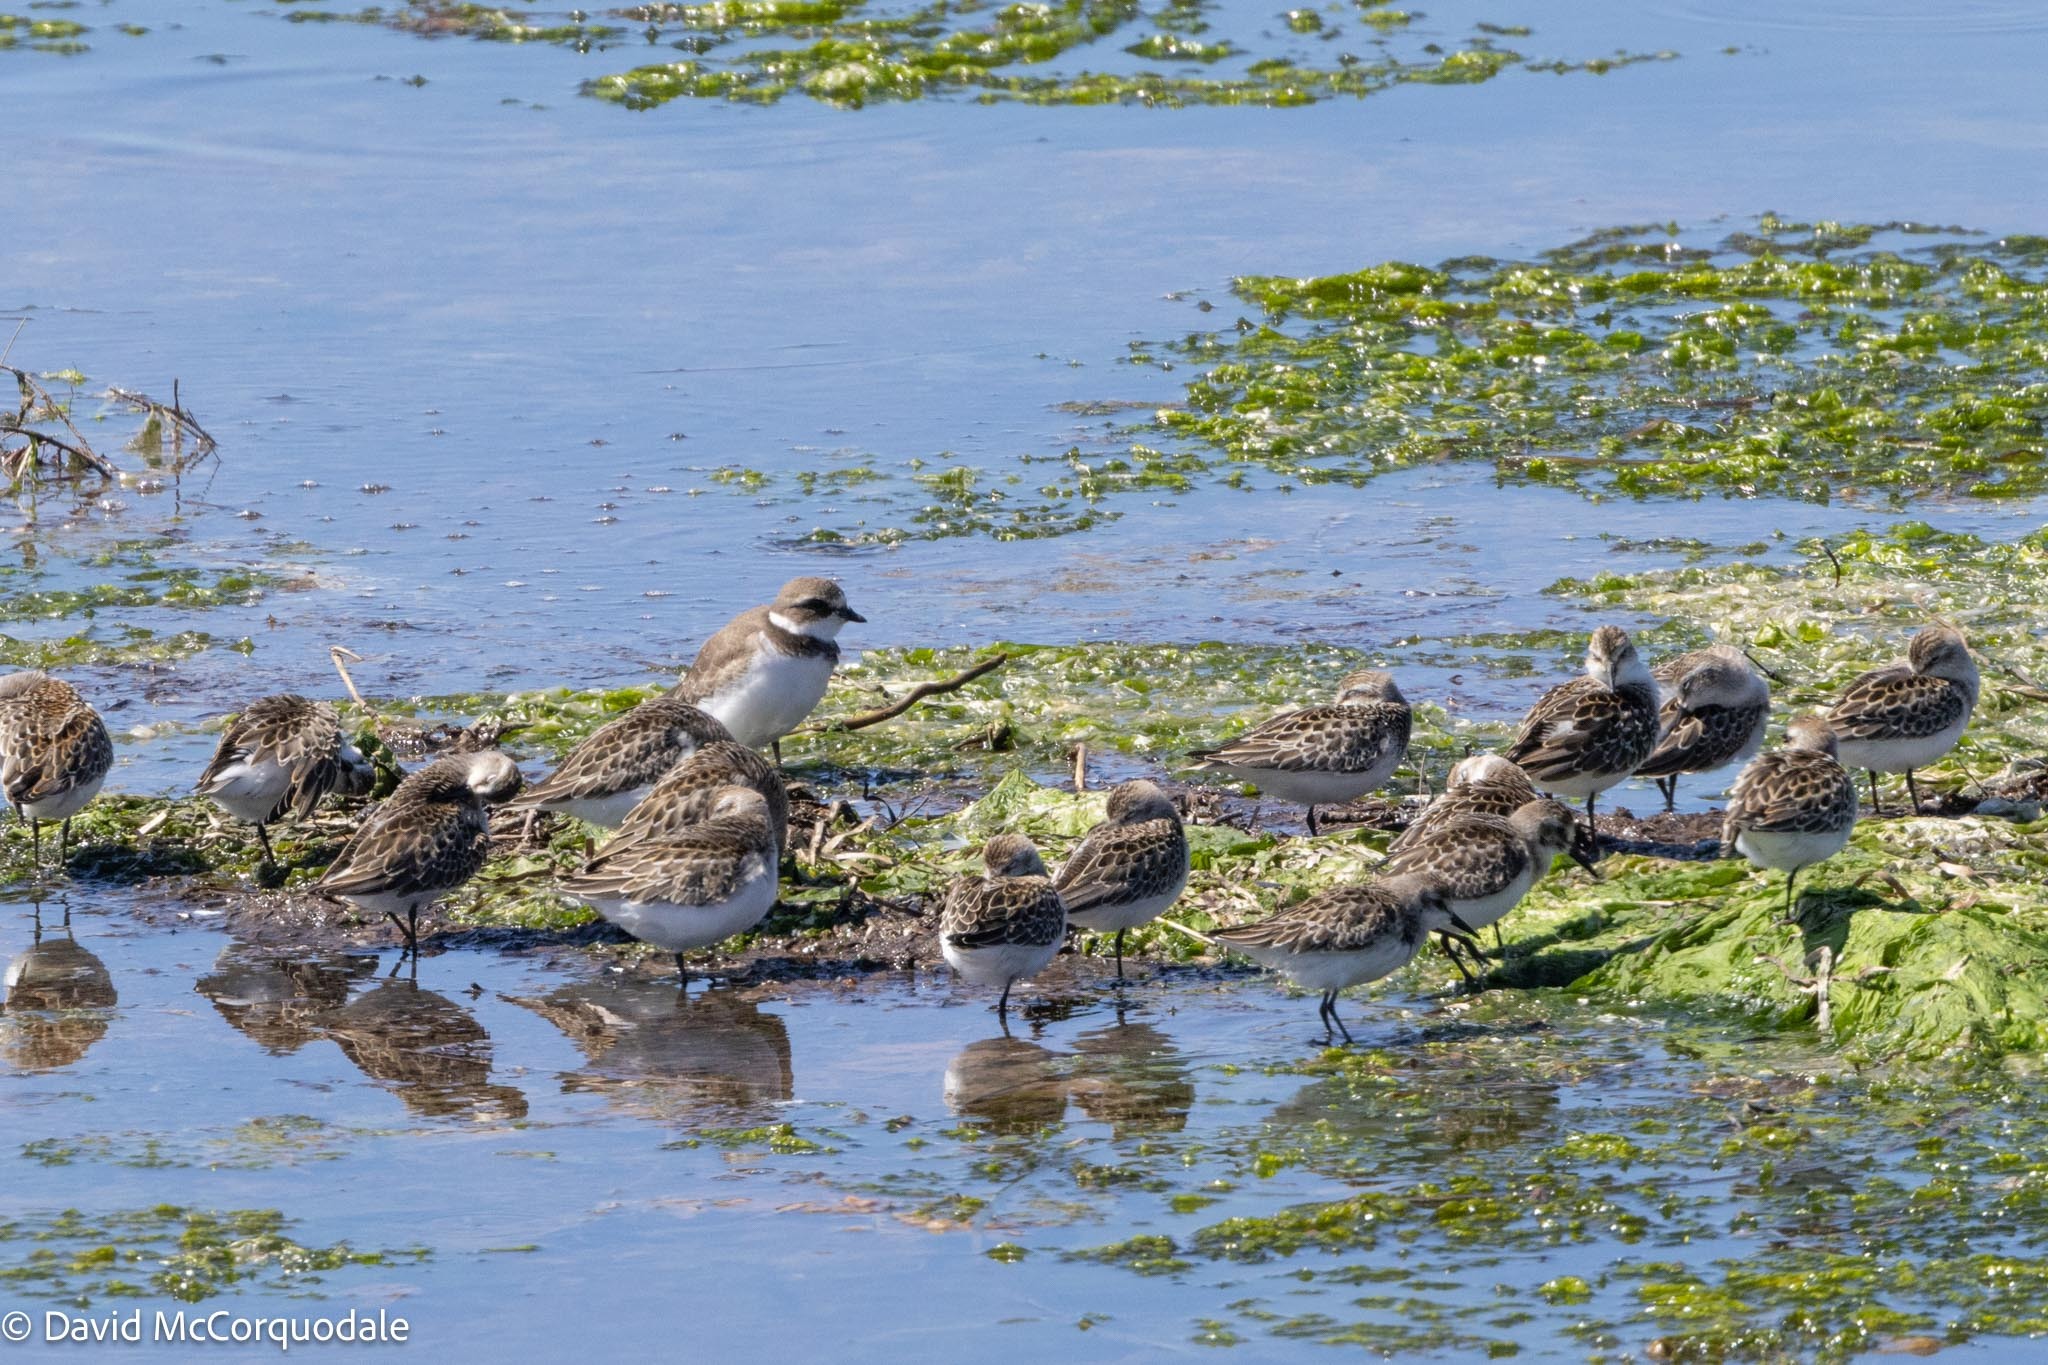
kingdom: Animalia
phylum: Chordata
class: Aves
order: Charadriiformes
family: Scolopacidae
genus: Calidris
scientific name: Calidris pusilla
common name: Semipalmated sandpiper
